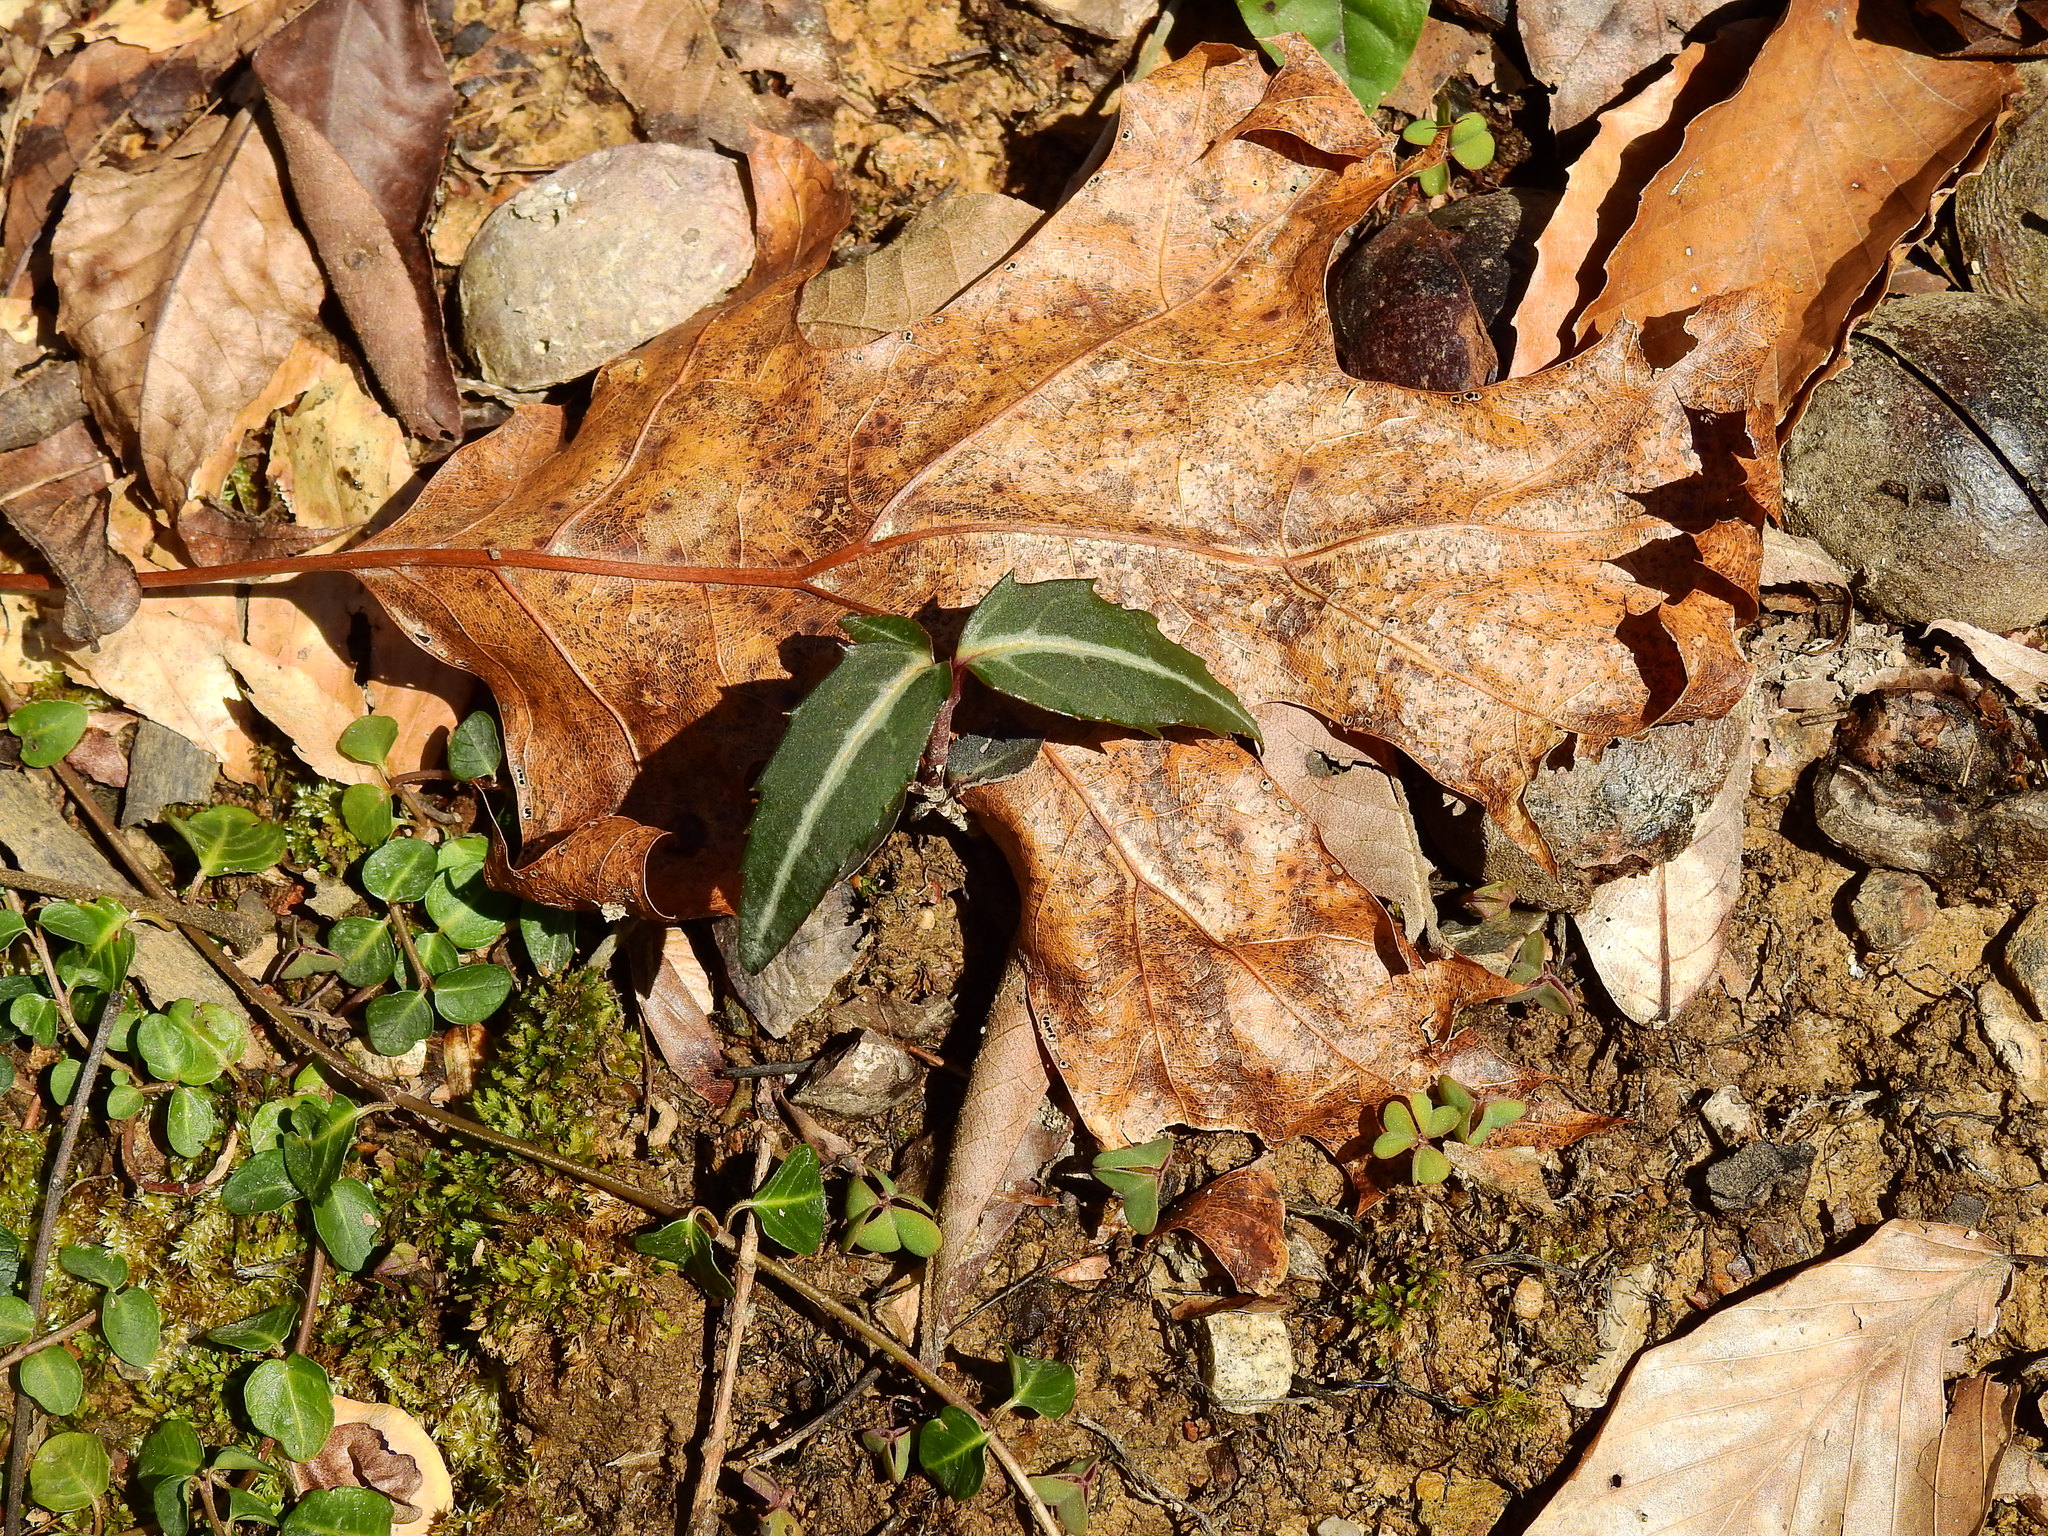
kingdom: Plantae
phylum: Tracheophyta
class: Magnoliopsida
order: Ericales
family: Ericaceae
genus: Chimaphila
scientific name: Chimaphila maculata
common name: Spotted pipsissewa
